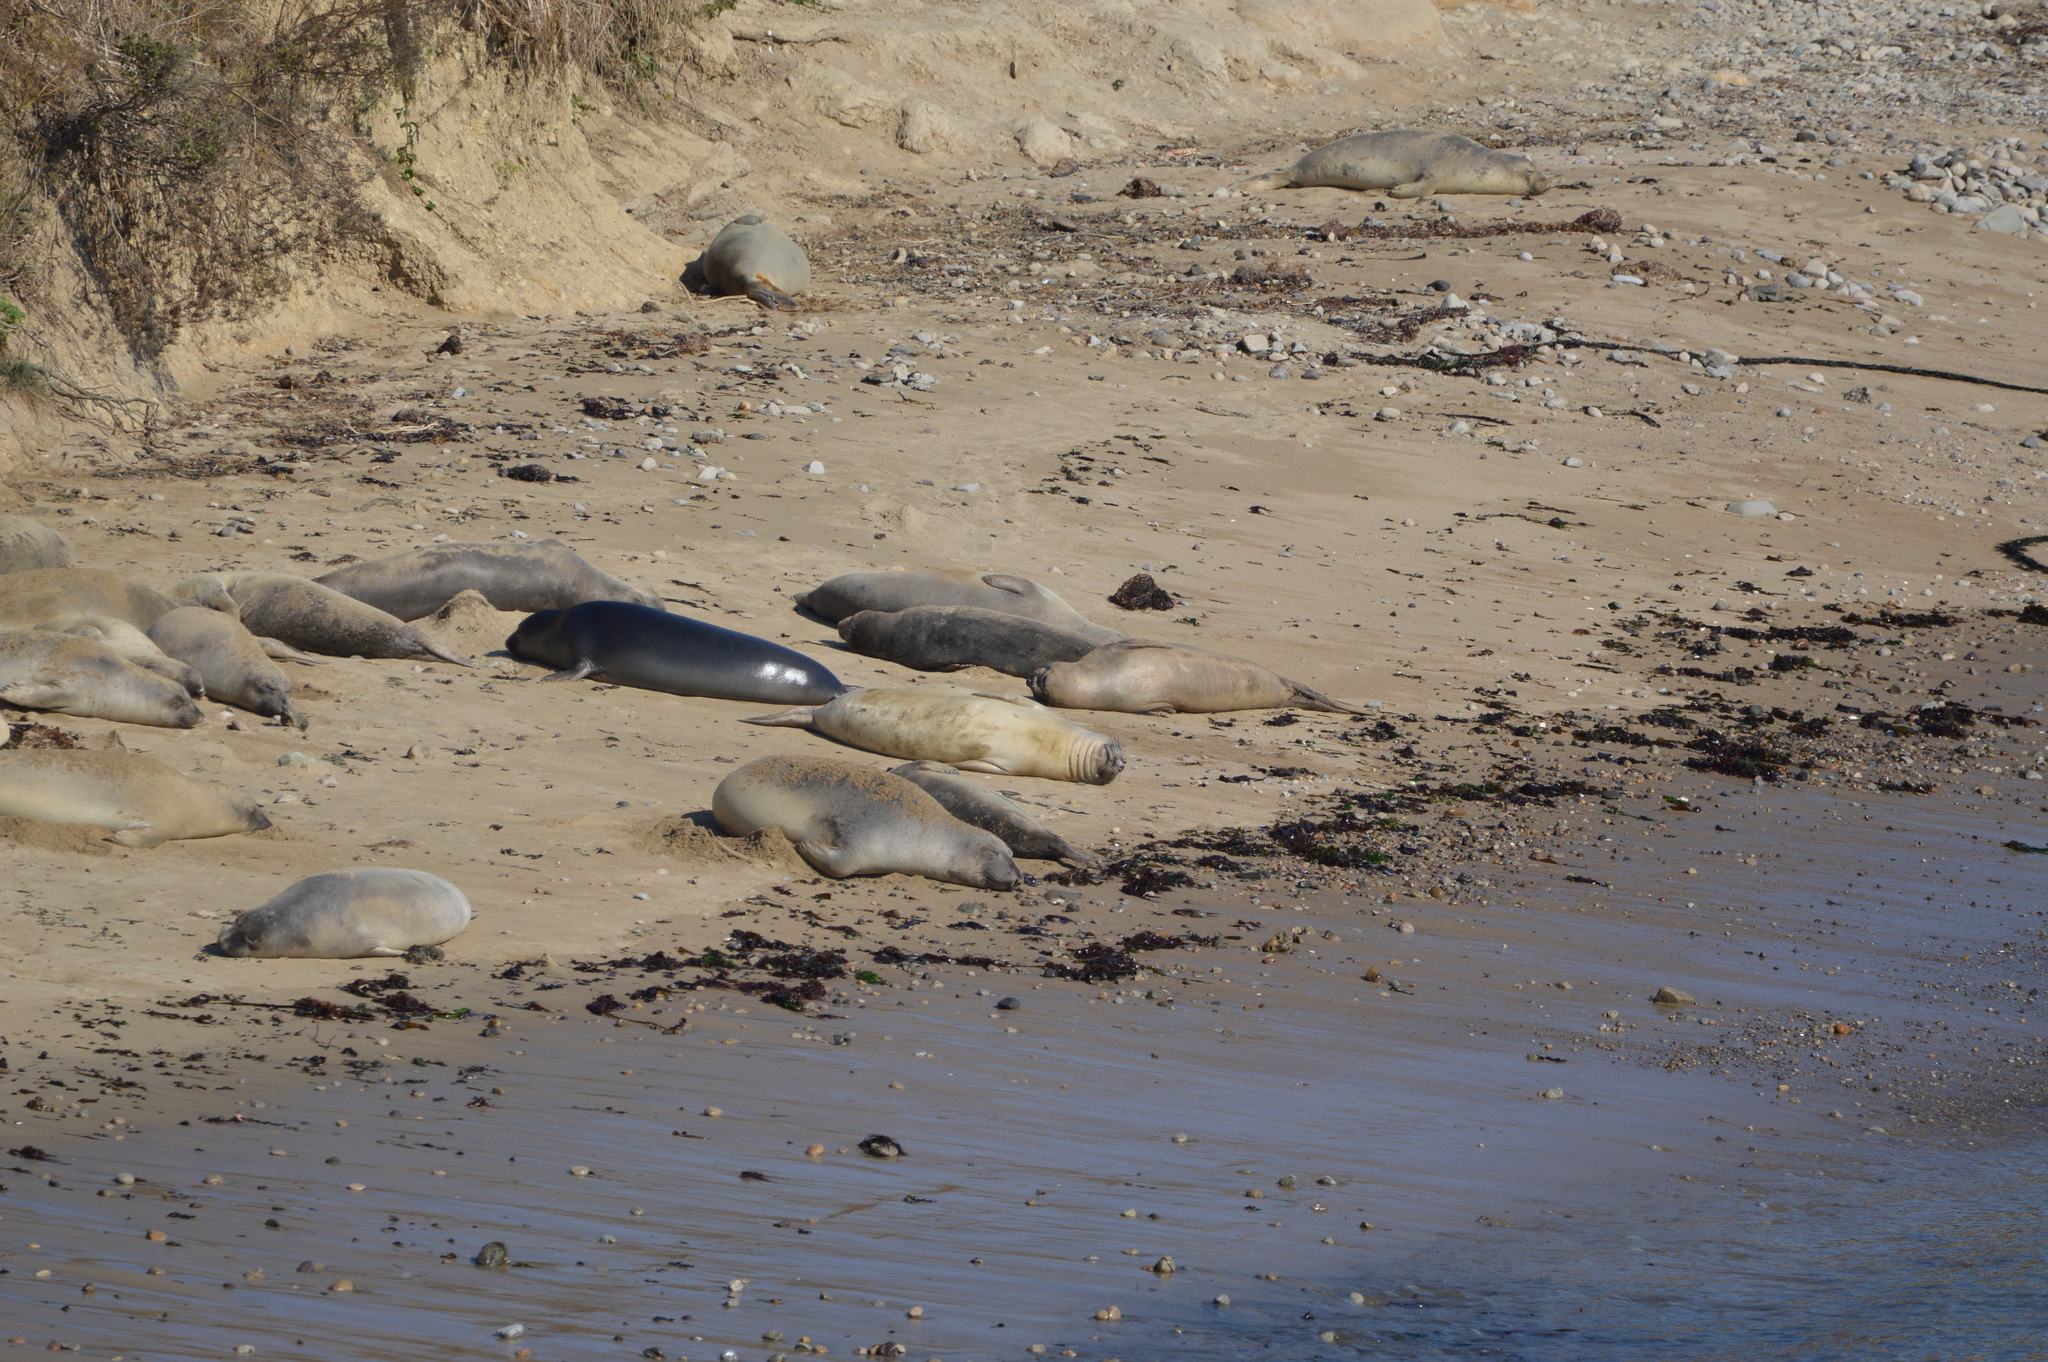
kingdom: Animalia
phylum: Chordata
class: Mammalia
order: Carnivora
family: Phocidae
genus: Mirounga
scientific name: Mirounga angustirostris
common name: Northern elephant seal
